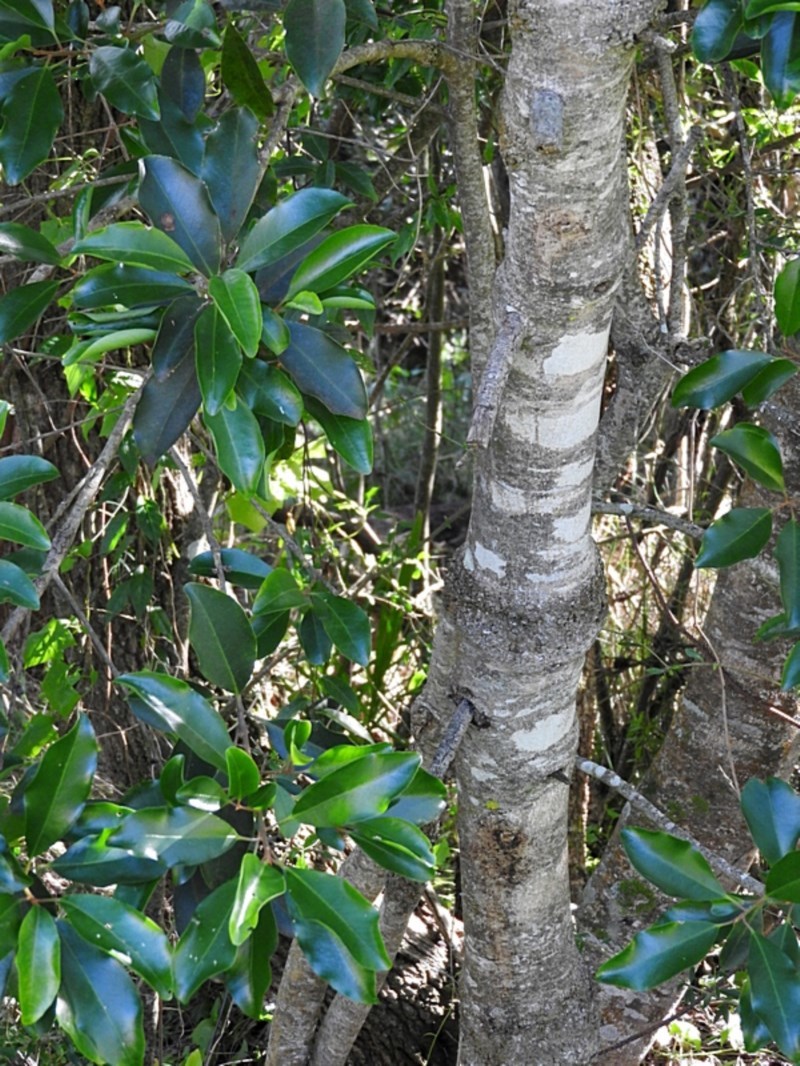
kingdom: Plantae
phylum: Tracheophyta
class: Magnoliopsida
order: Ericales
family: Primulaceae
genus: Myrsine
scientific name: Myrsine howittiana
